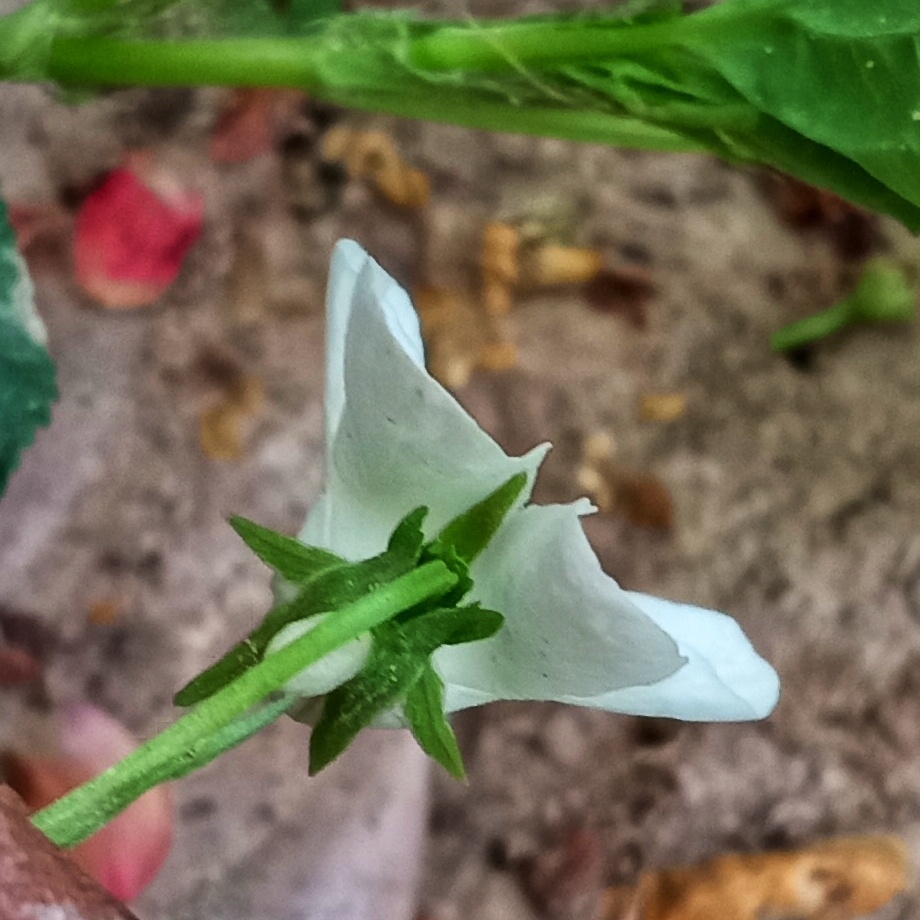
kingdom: Plantae
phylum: Tracheophyta
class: Magnoliopsida
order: Malpighiales
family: Violaceae
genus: Viola
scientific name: Viola striata
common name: Cream violet
